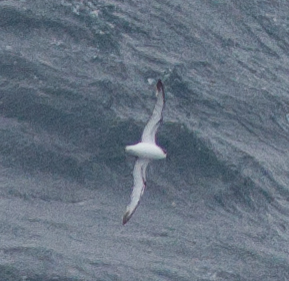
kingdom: Animalia
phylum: Chordata
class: Aves
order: Procellariiformes
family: Procellariidae
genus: Pterodroma
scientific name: Pterodroma cookii
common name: Cook's petrel
